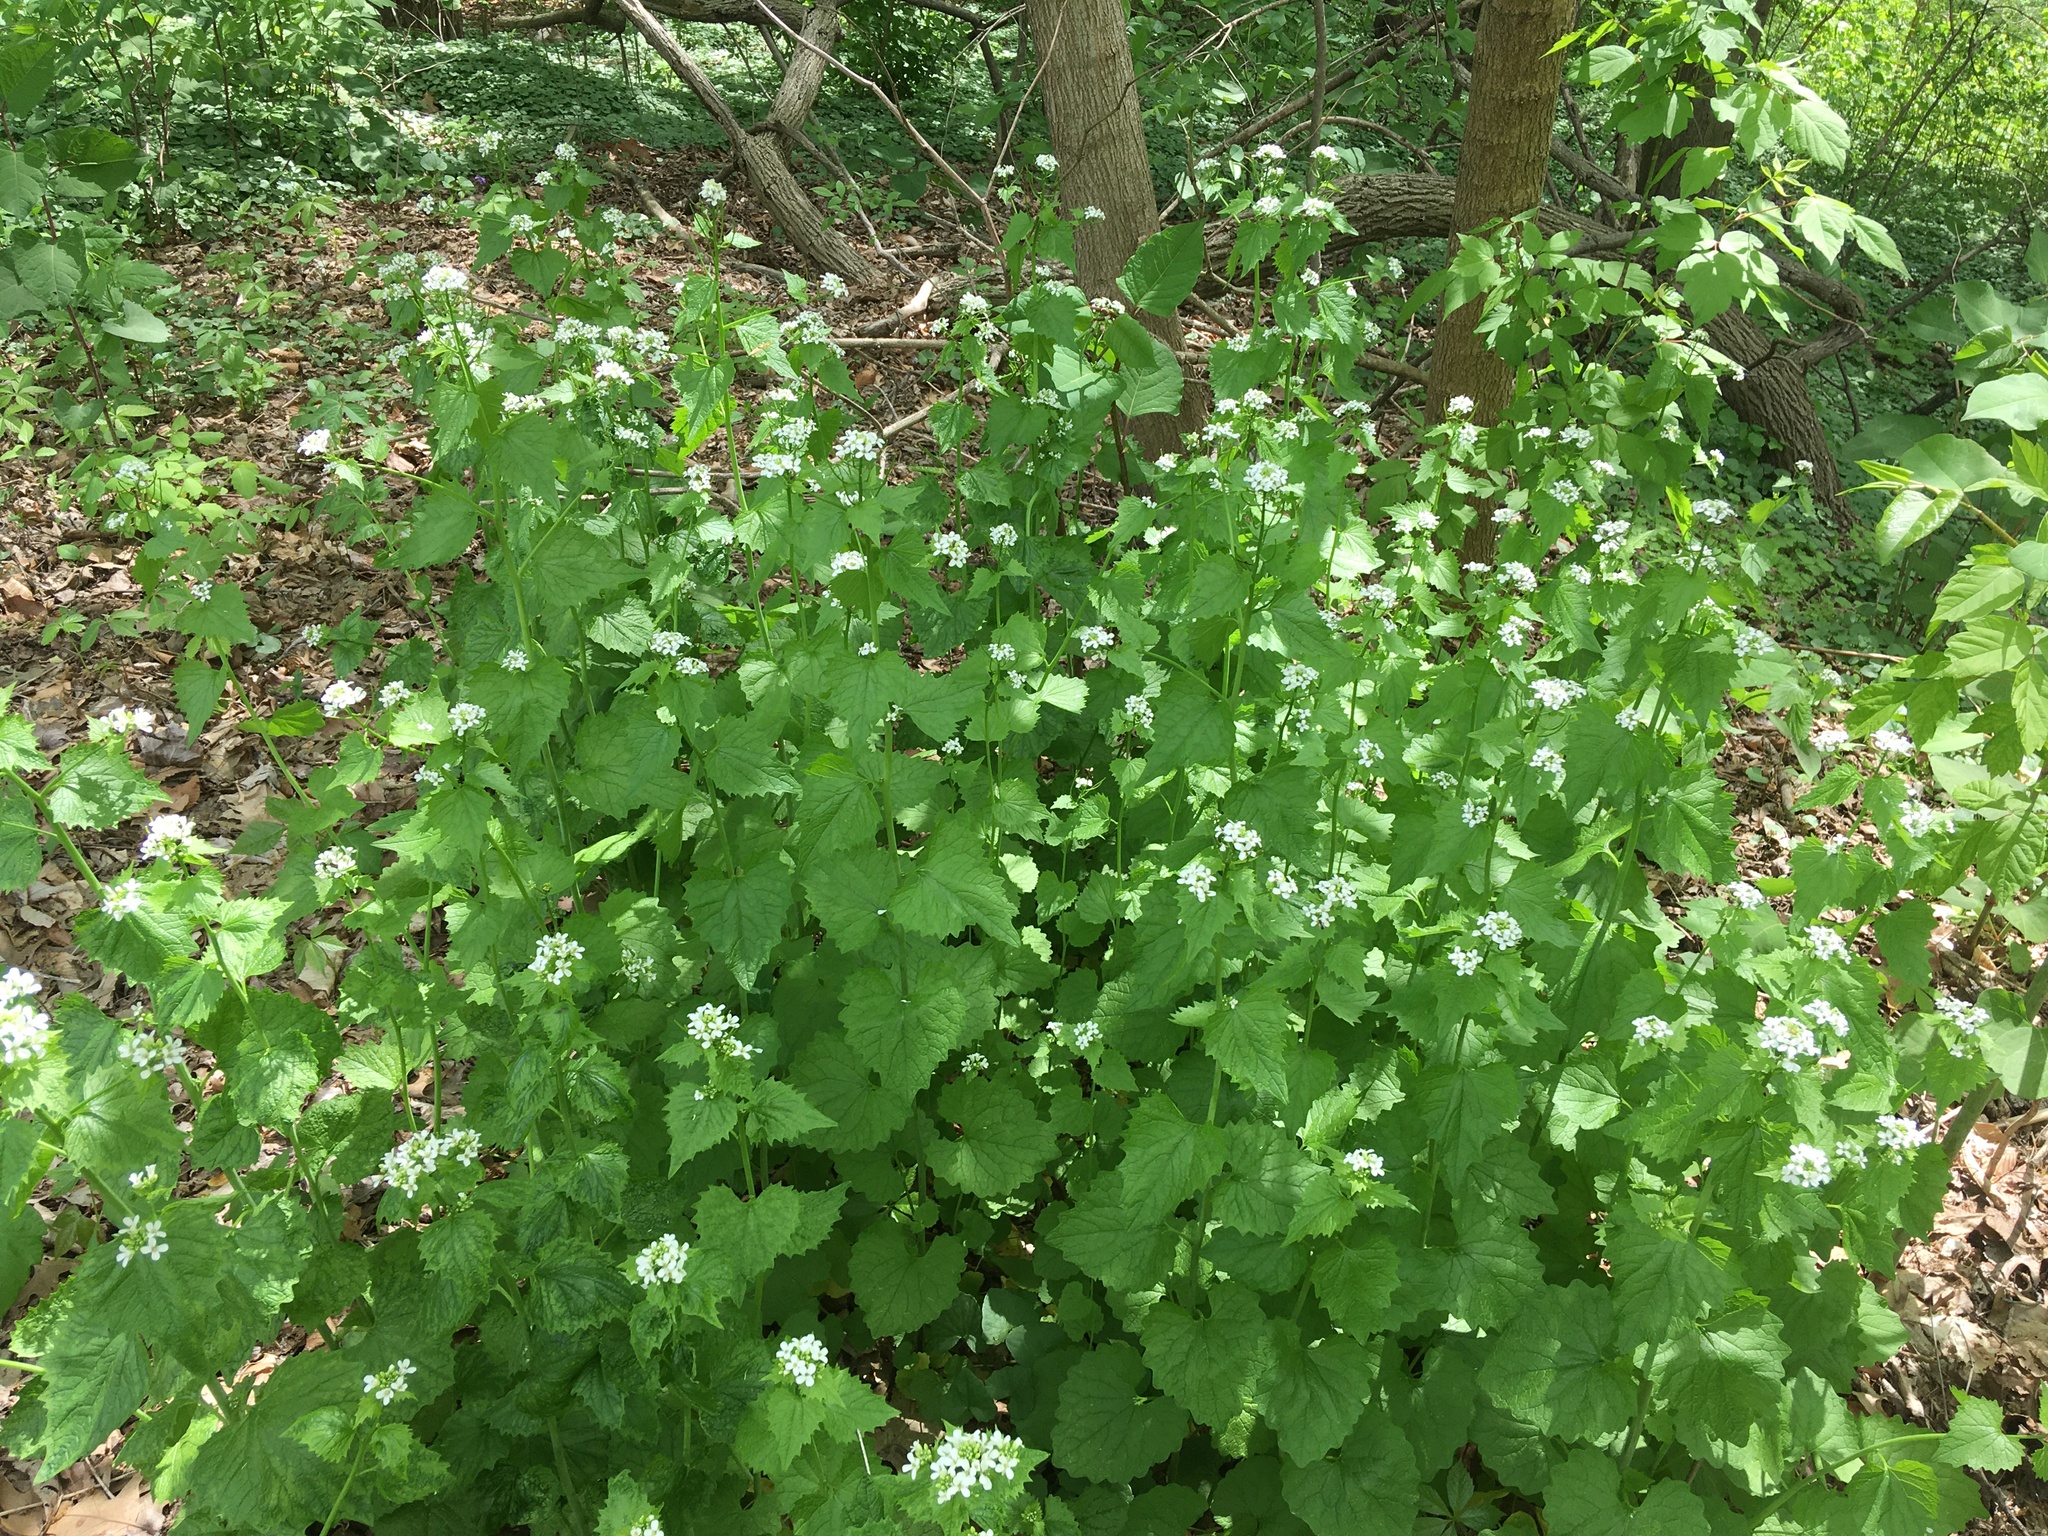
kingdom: Plantae
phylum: Tracheophyta
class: Magnoliopsida
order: Brassicales
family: Brassicaceae
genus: Alliaria
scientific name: Alliaria petiolata
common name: Garlic mustard
